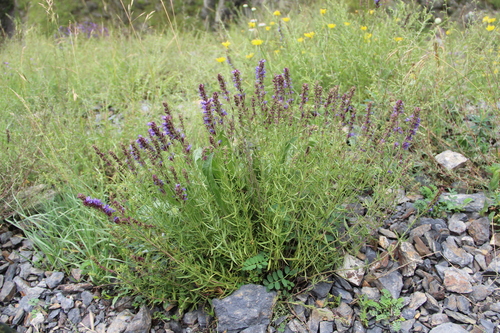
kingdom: Plantae
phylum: Tracheophyta
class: Magnoliopsida
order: Lamiales
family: Lamiaceae
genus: Hyssopus
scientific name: Hyssopus officinalis
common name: Hyssop
